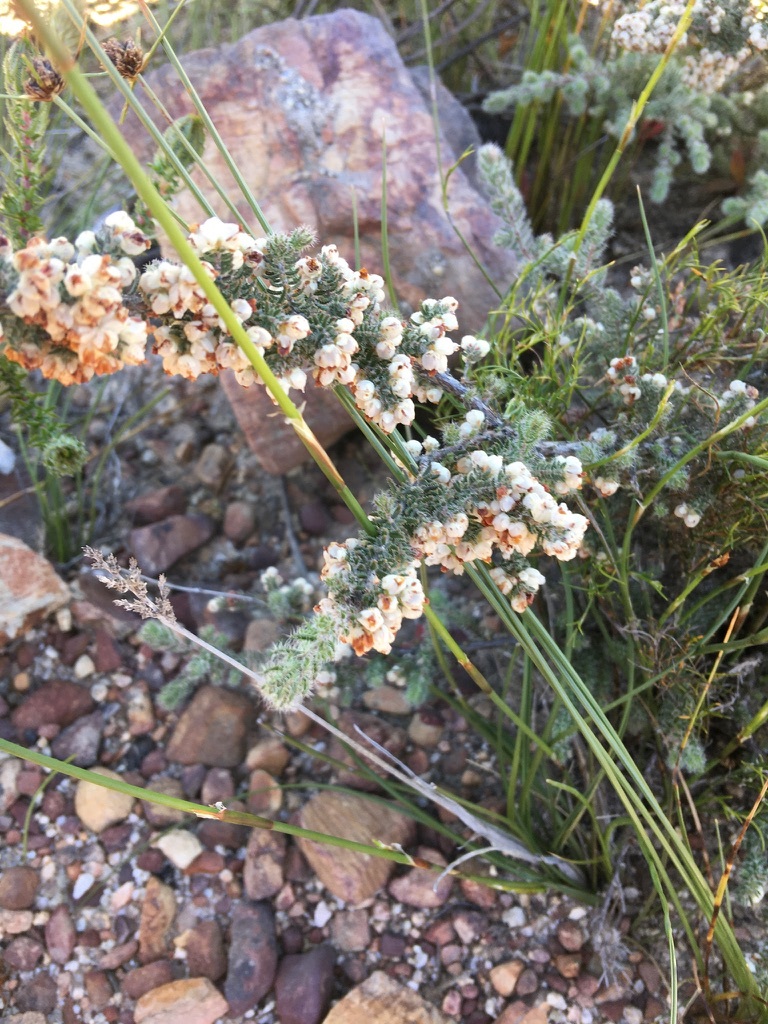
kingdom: Plantae
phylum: Tracheophyta
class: Magnoliopsida
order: Ericales
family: Ericaceae
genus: Erica
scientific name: Erica totta
